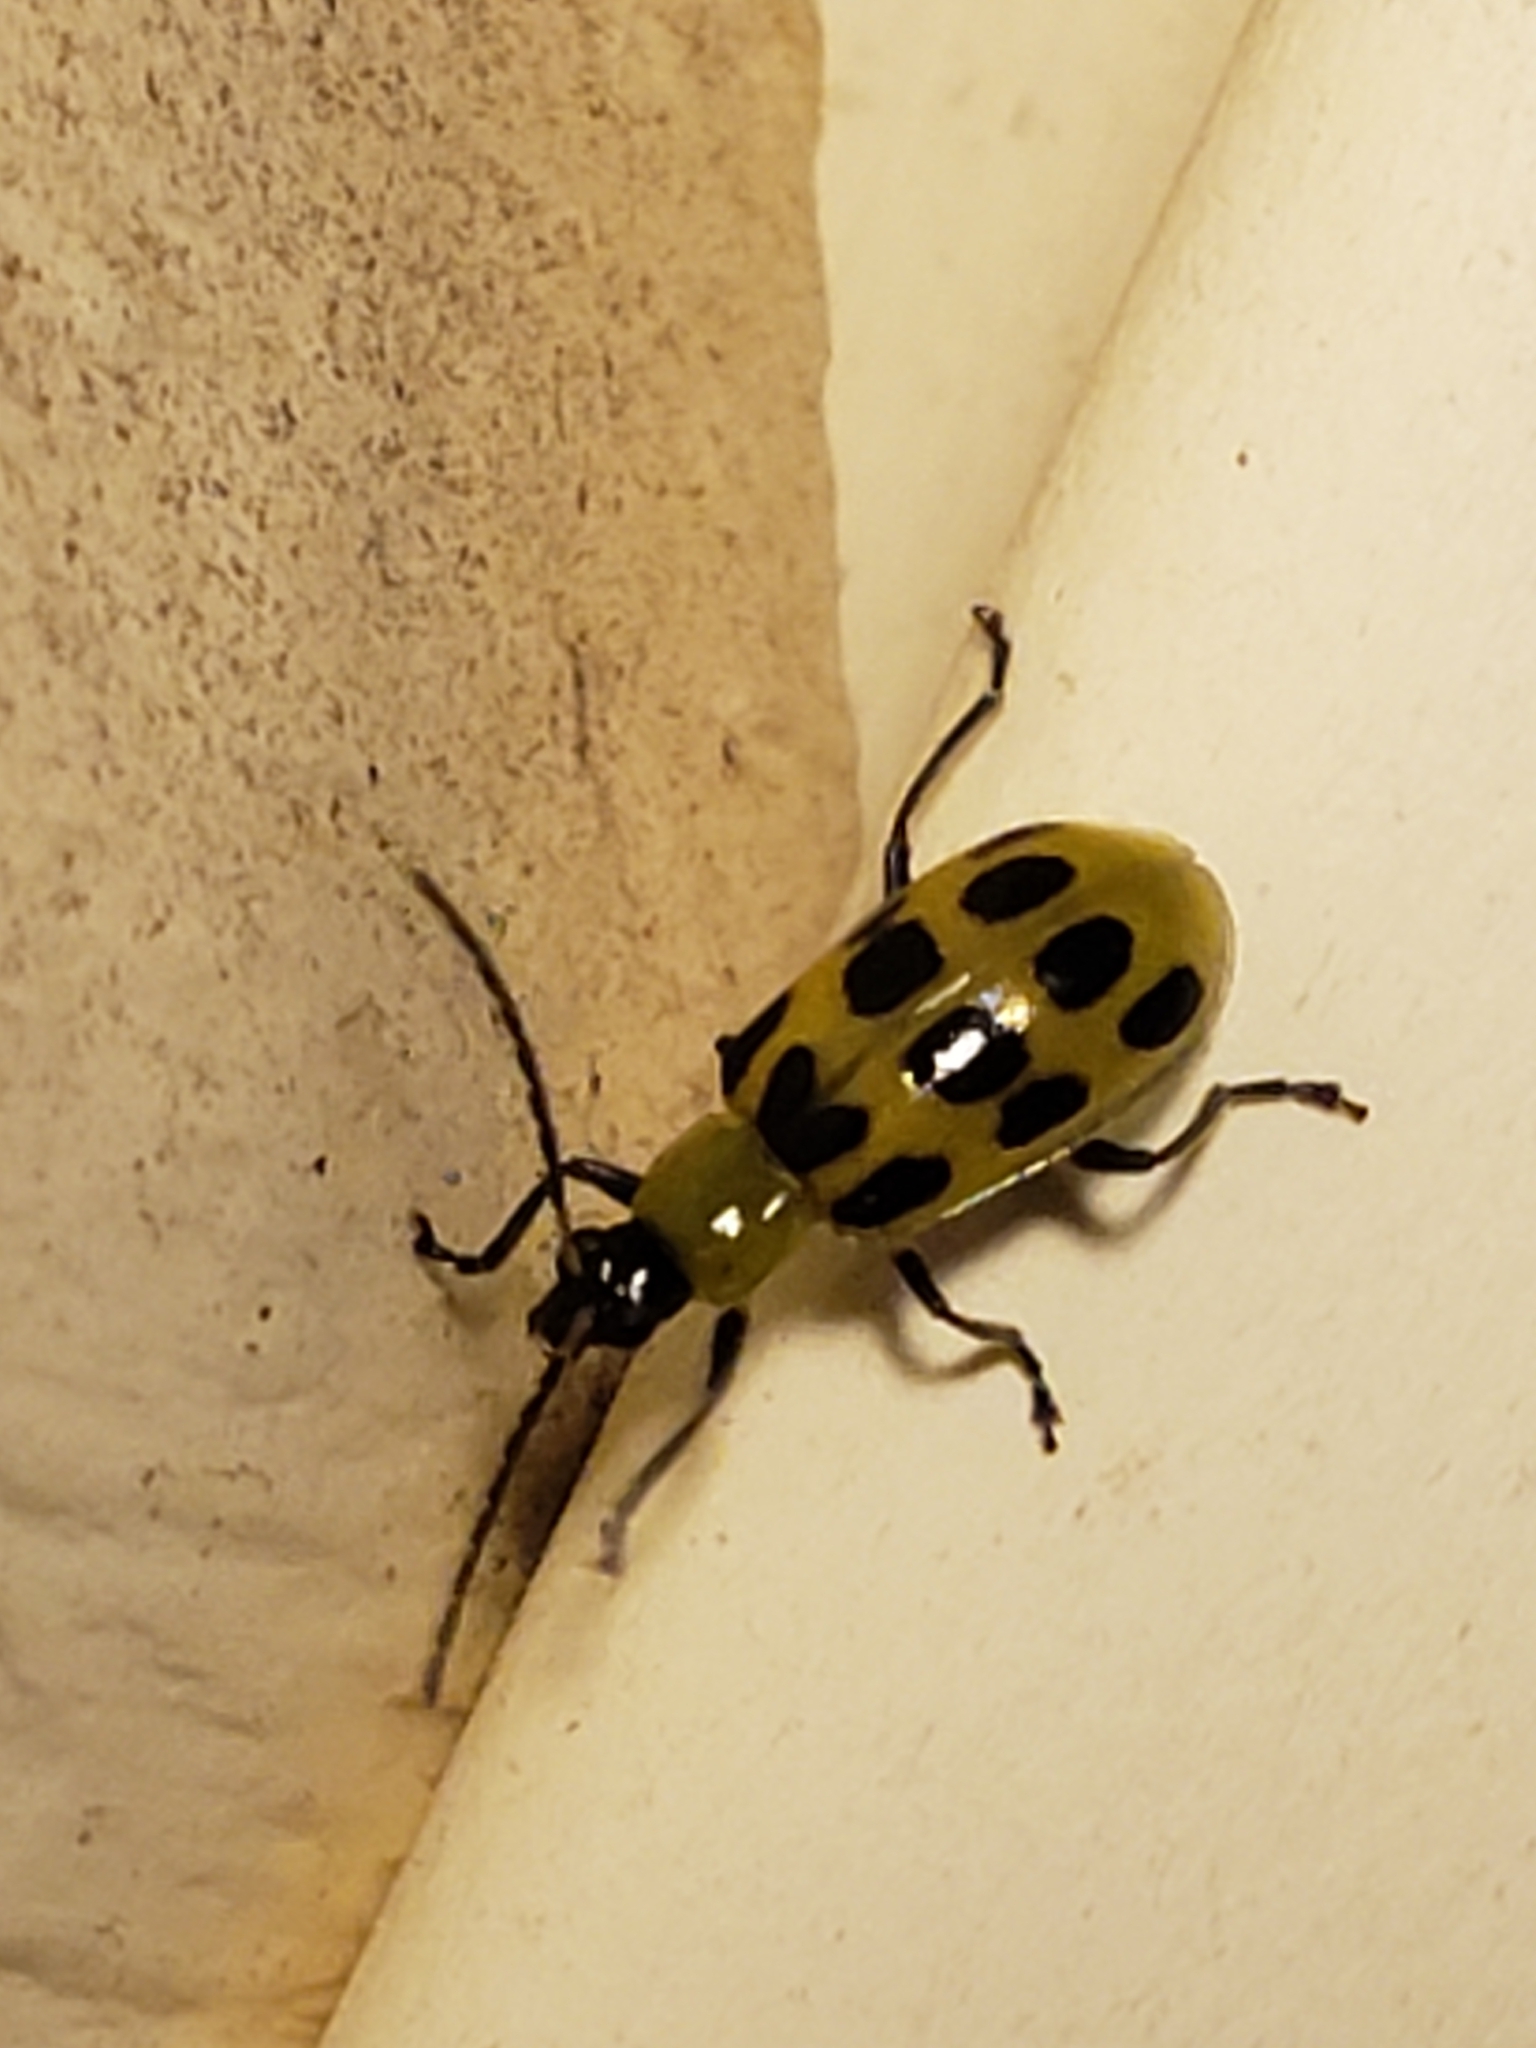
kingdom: Animalia
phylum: Arthropoda
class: Insecta
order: Coleoptera
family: Chrysomelidae
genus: Diabrotica
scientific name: Diabrotica undecimpunctata
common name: Spotted cucumber beetle
